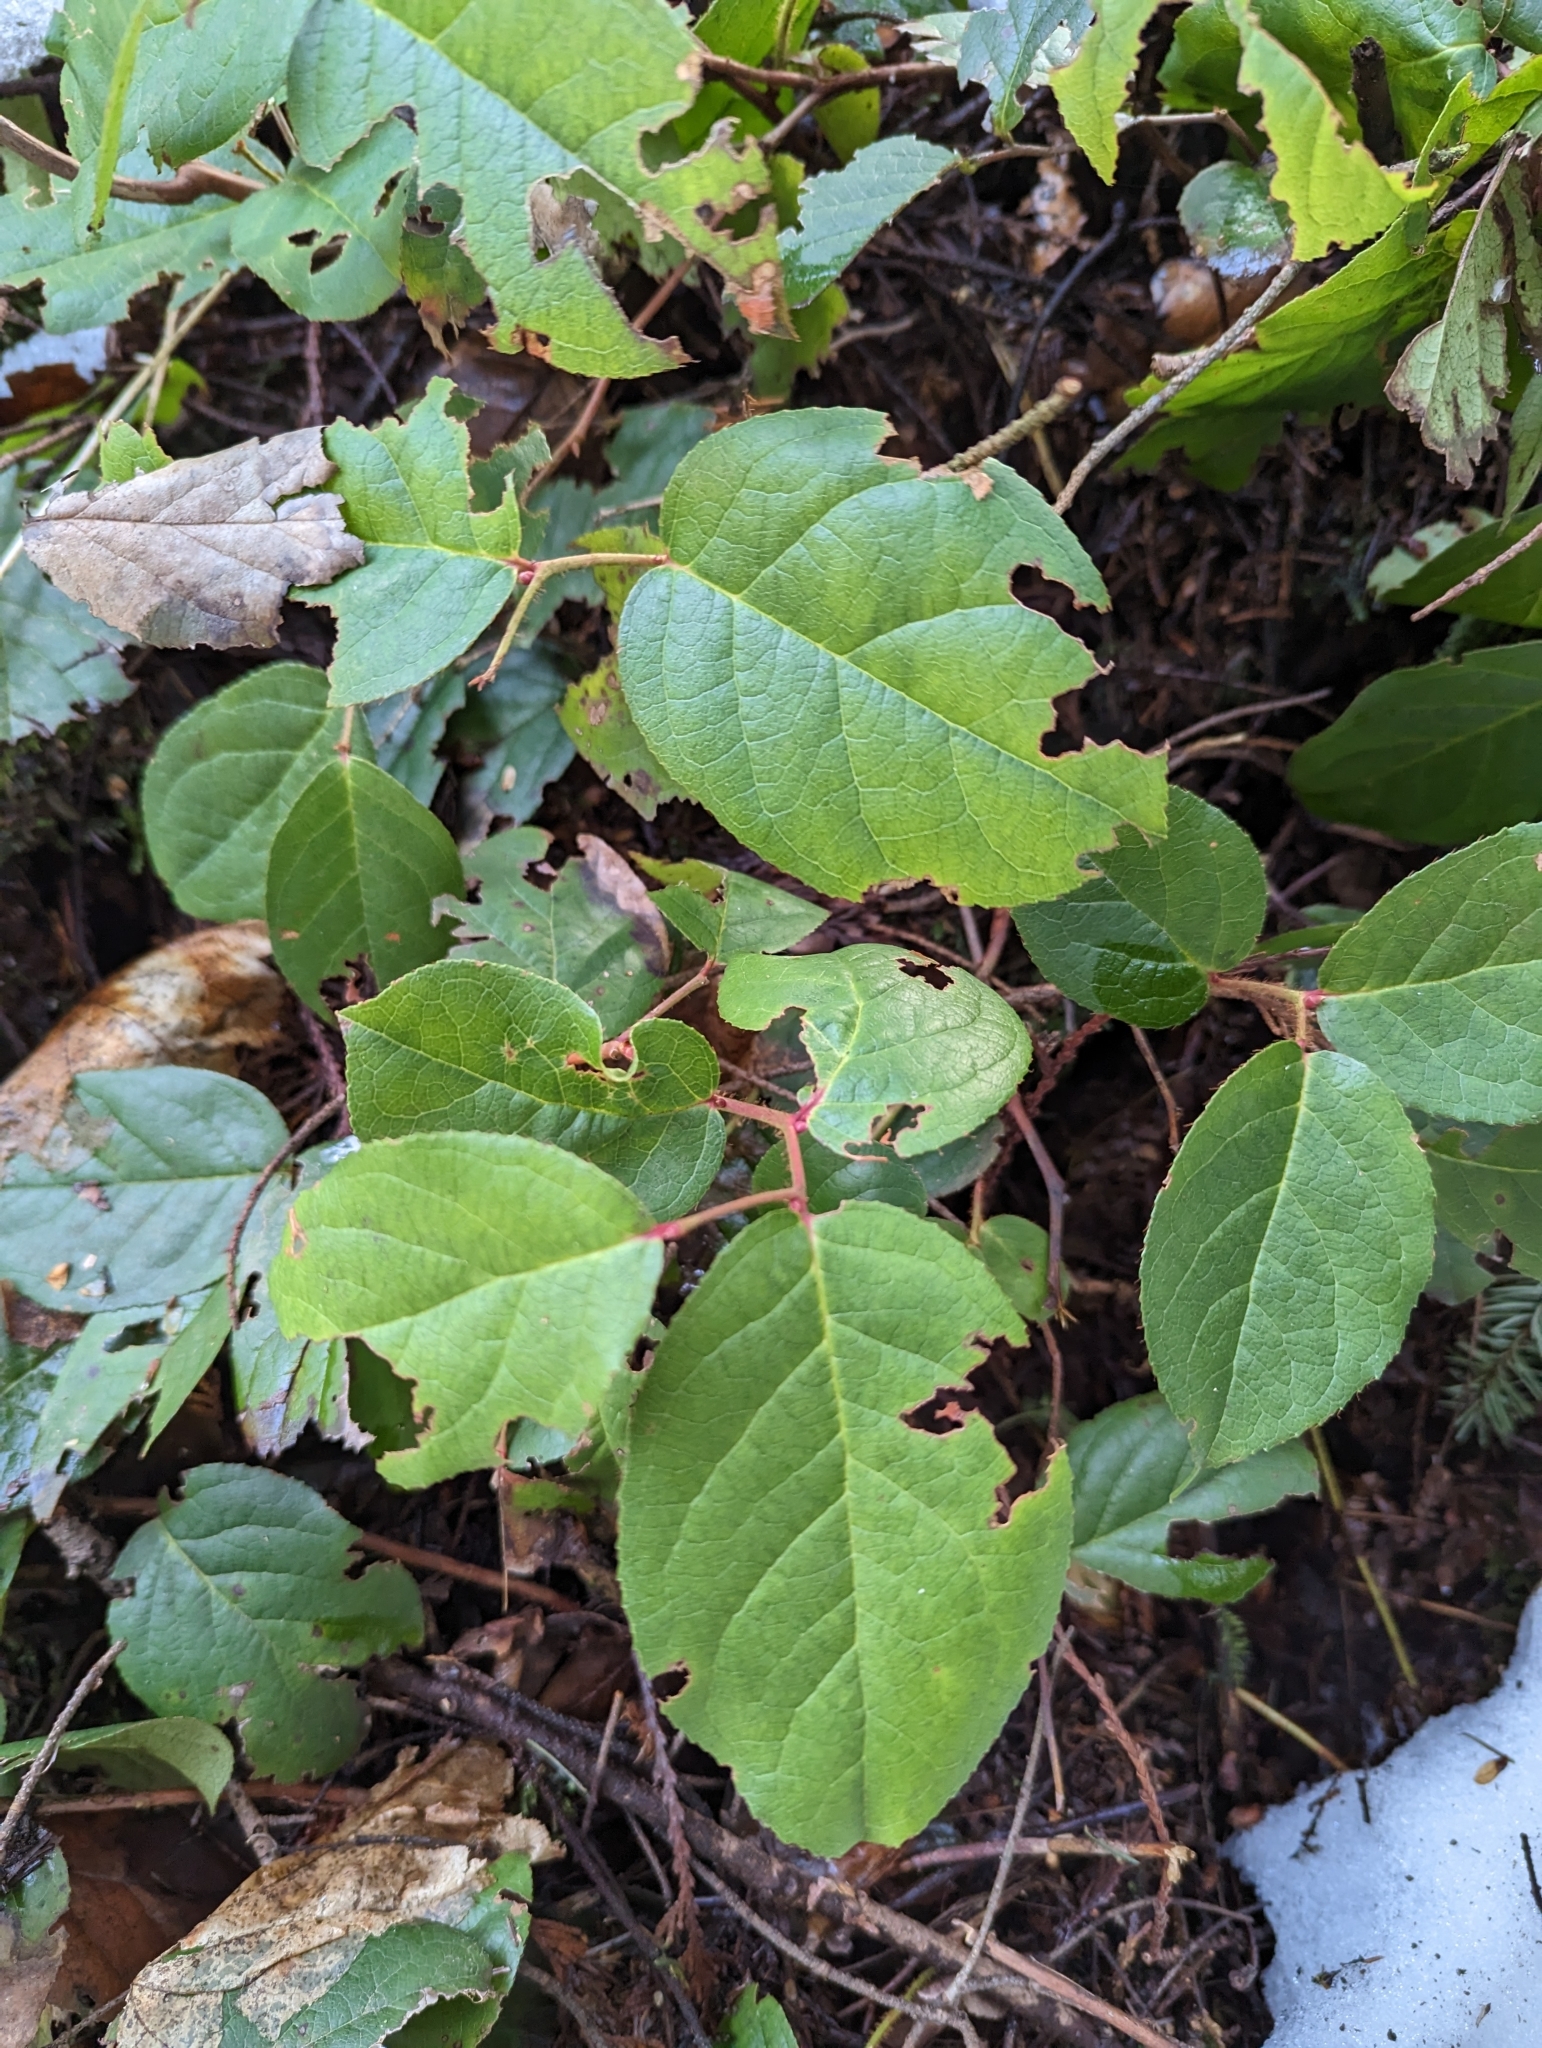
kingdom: Plantae
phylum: Tracheophyta
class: Magnoliopsida
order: Ericales
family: Ericaceae
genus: Gaultheria
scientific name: Gaultheria shallon
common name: Shallon
